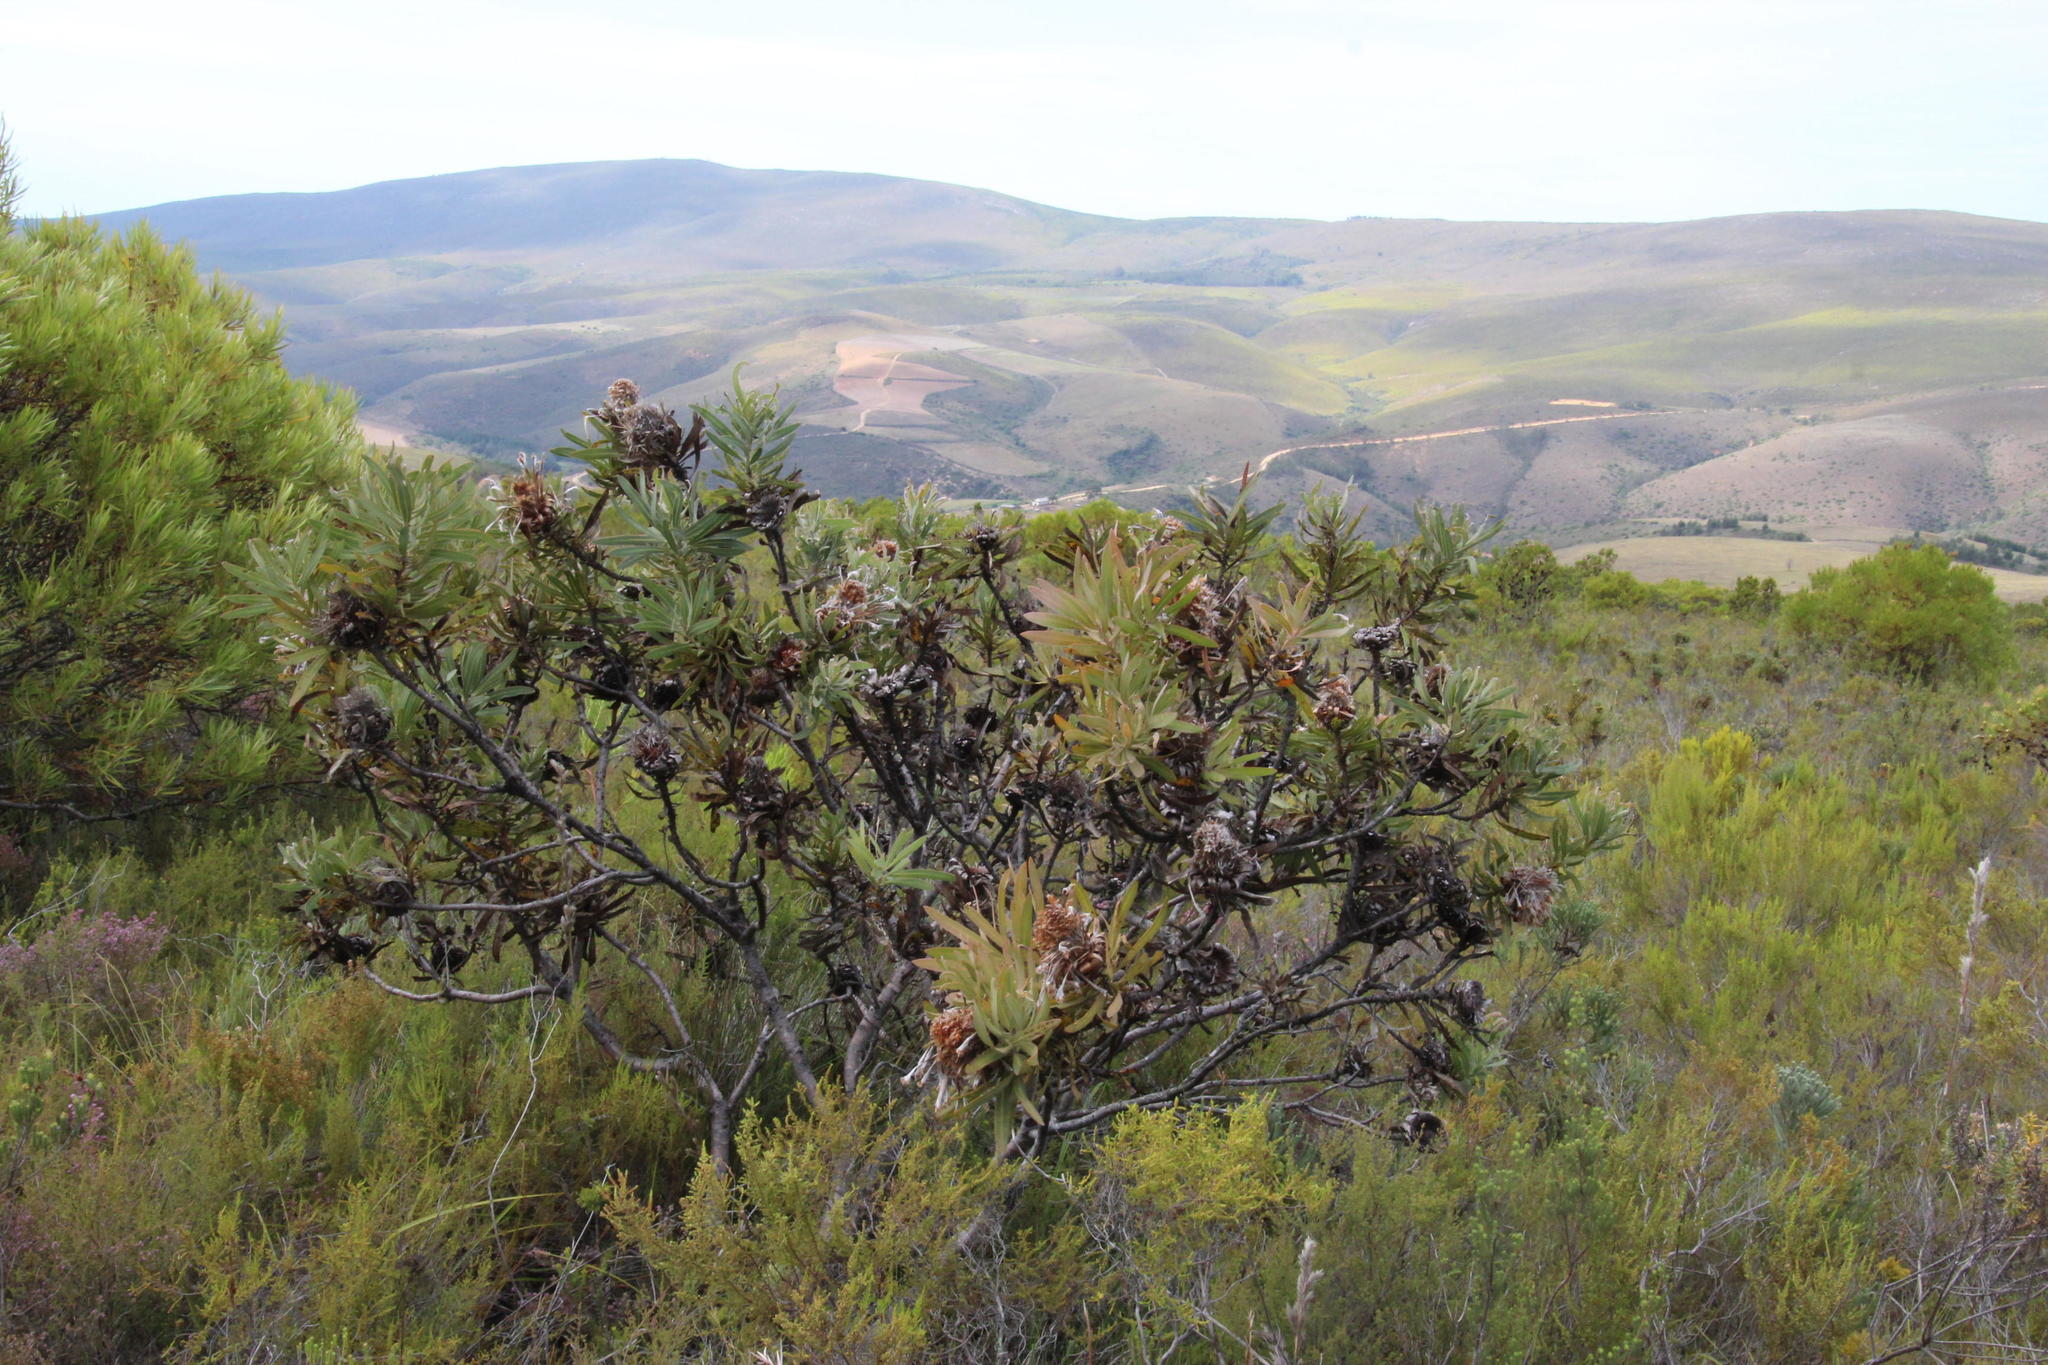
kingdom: Plantae
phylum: Tracheophyta
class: Magnoliopsida
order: Proteales
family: Proteaceae
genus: Protea
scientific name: Protea neriifolia
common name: Blue sugarbush
